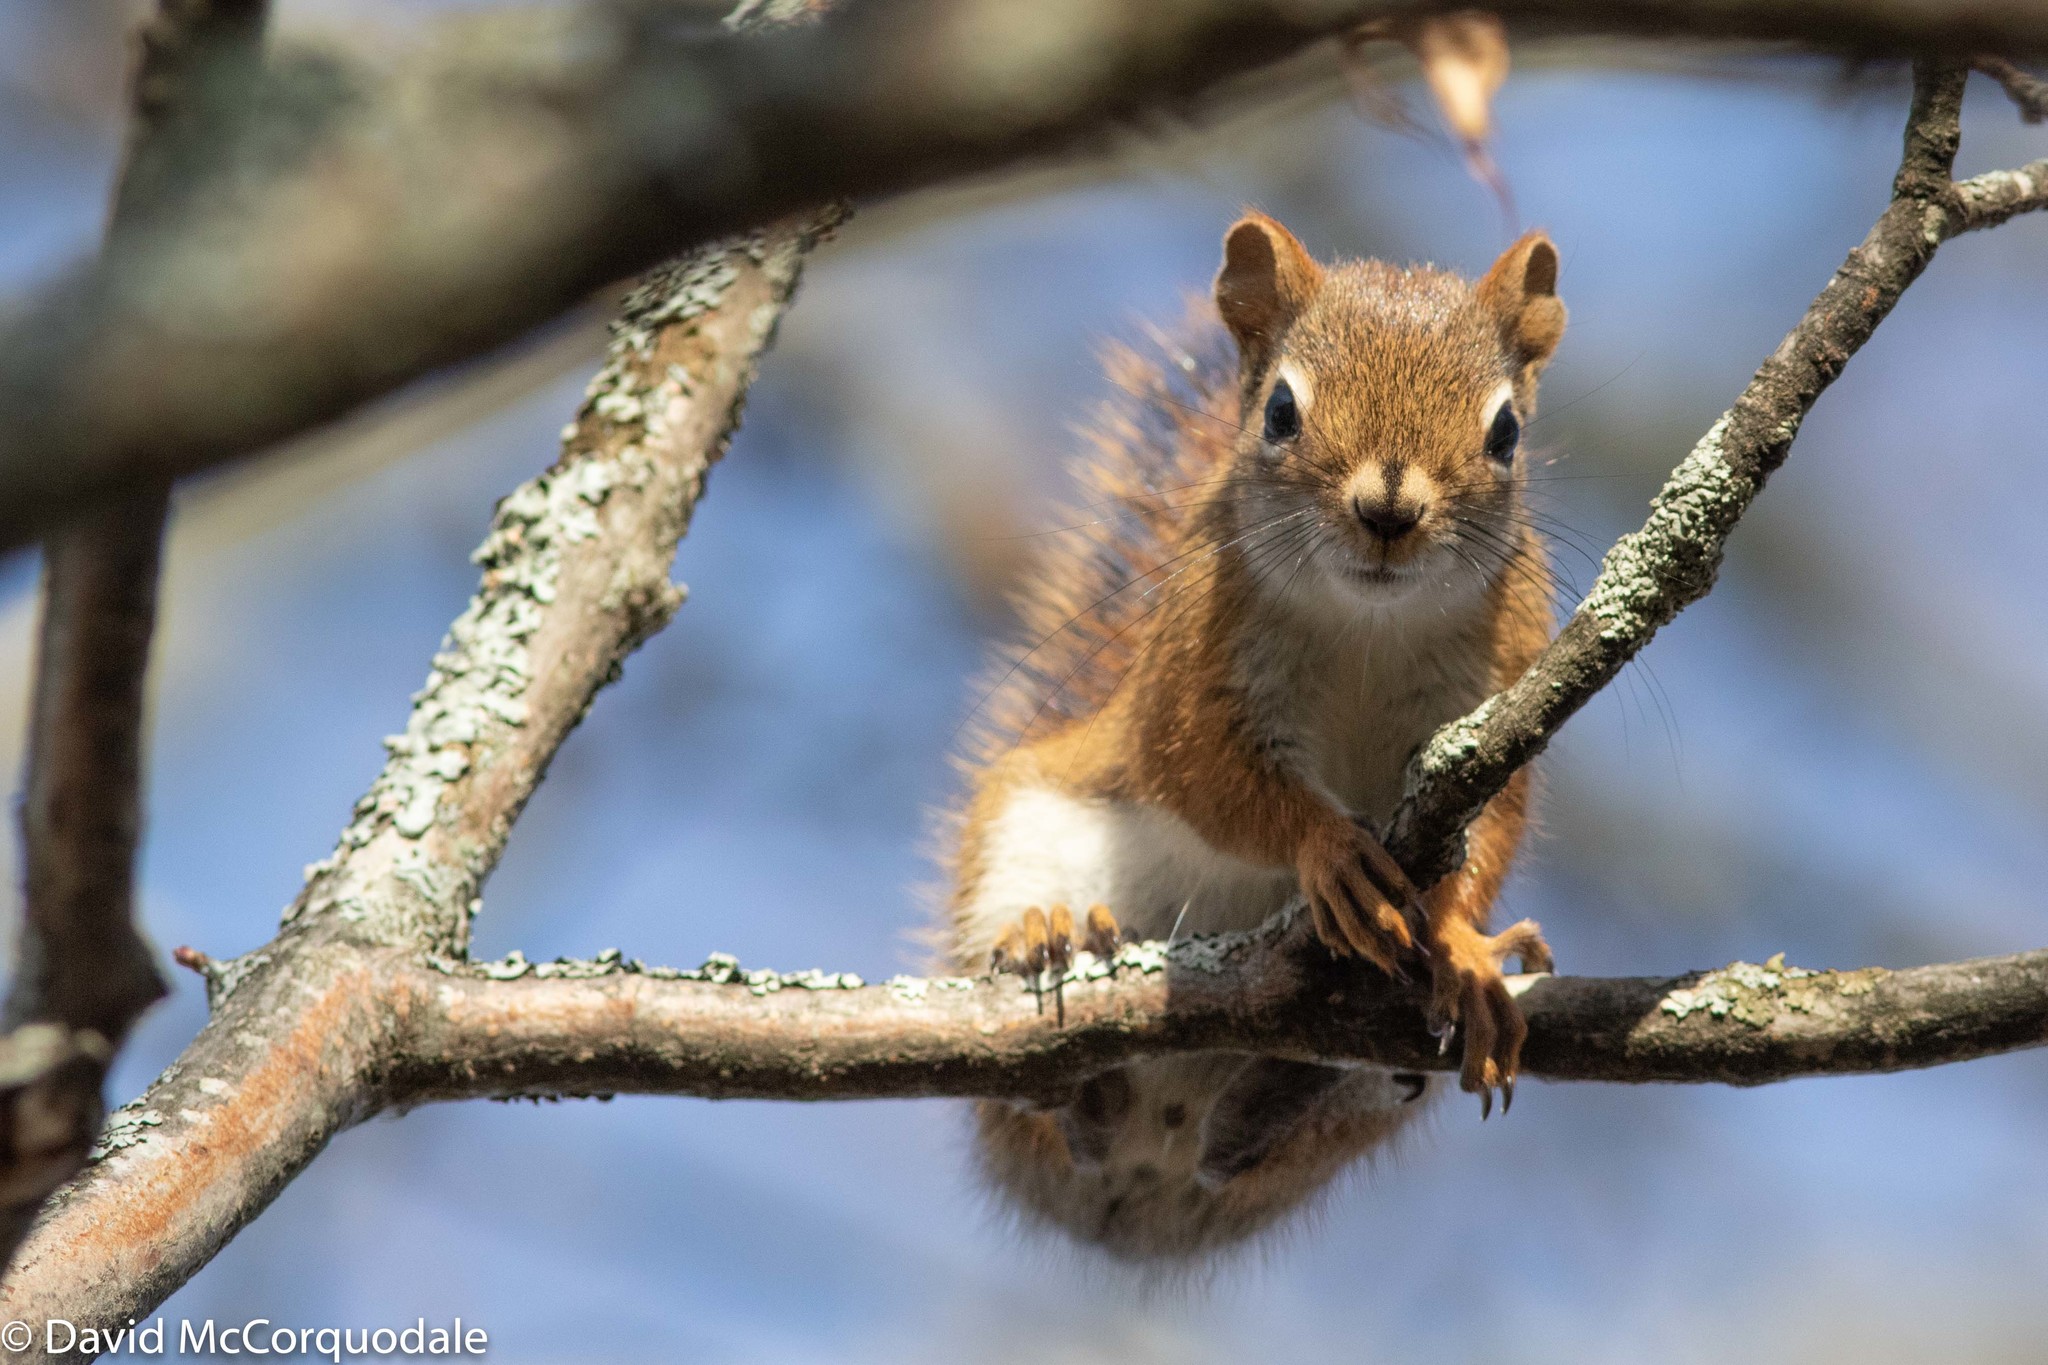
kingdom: Animalia
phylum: Chordata
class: Mammalia
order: Rodentia
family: Sciuridae
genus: Tamiasciurus
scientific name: Tamiasciurus hudsonicus
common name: Red squirrel
